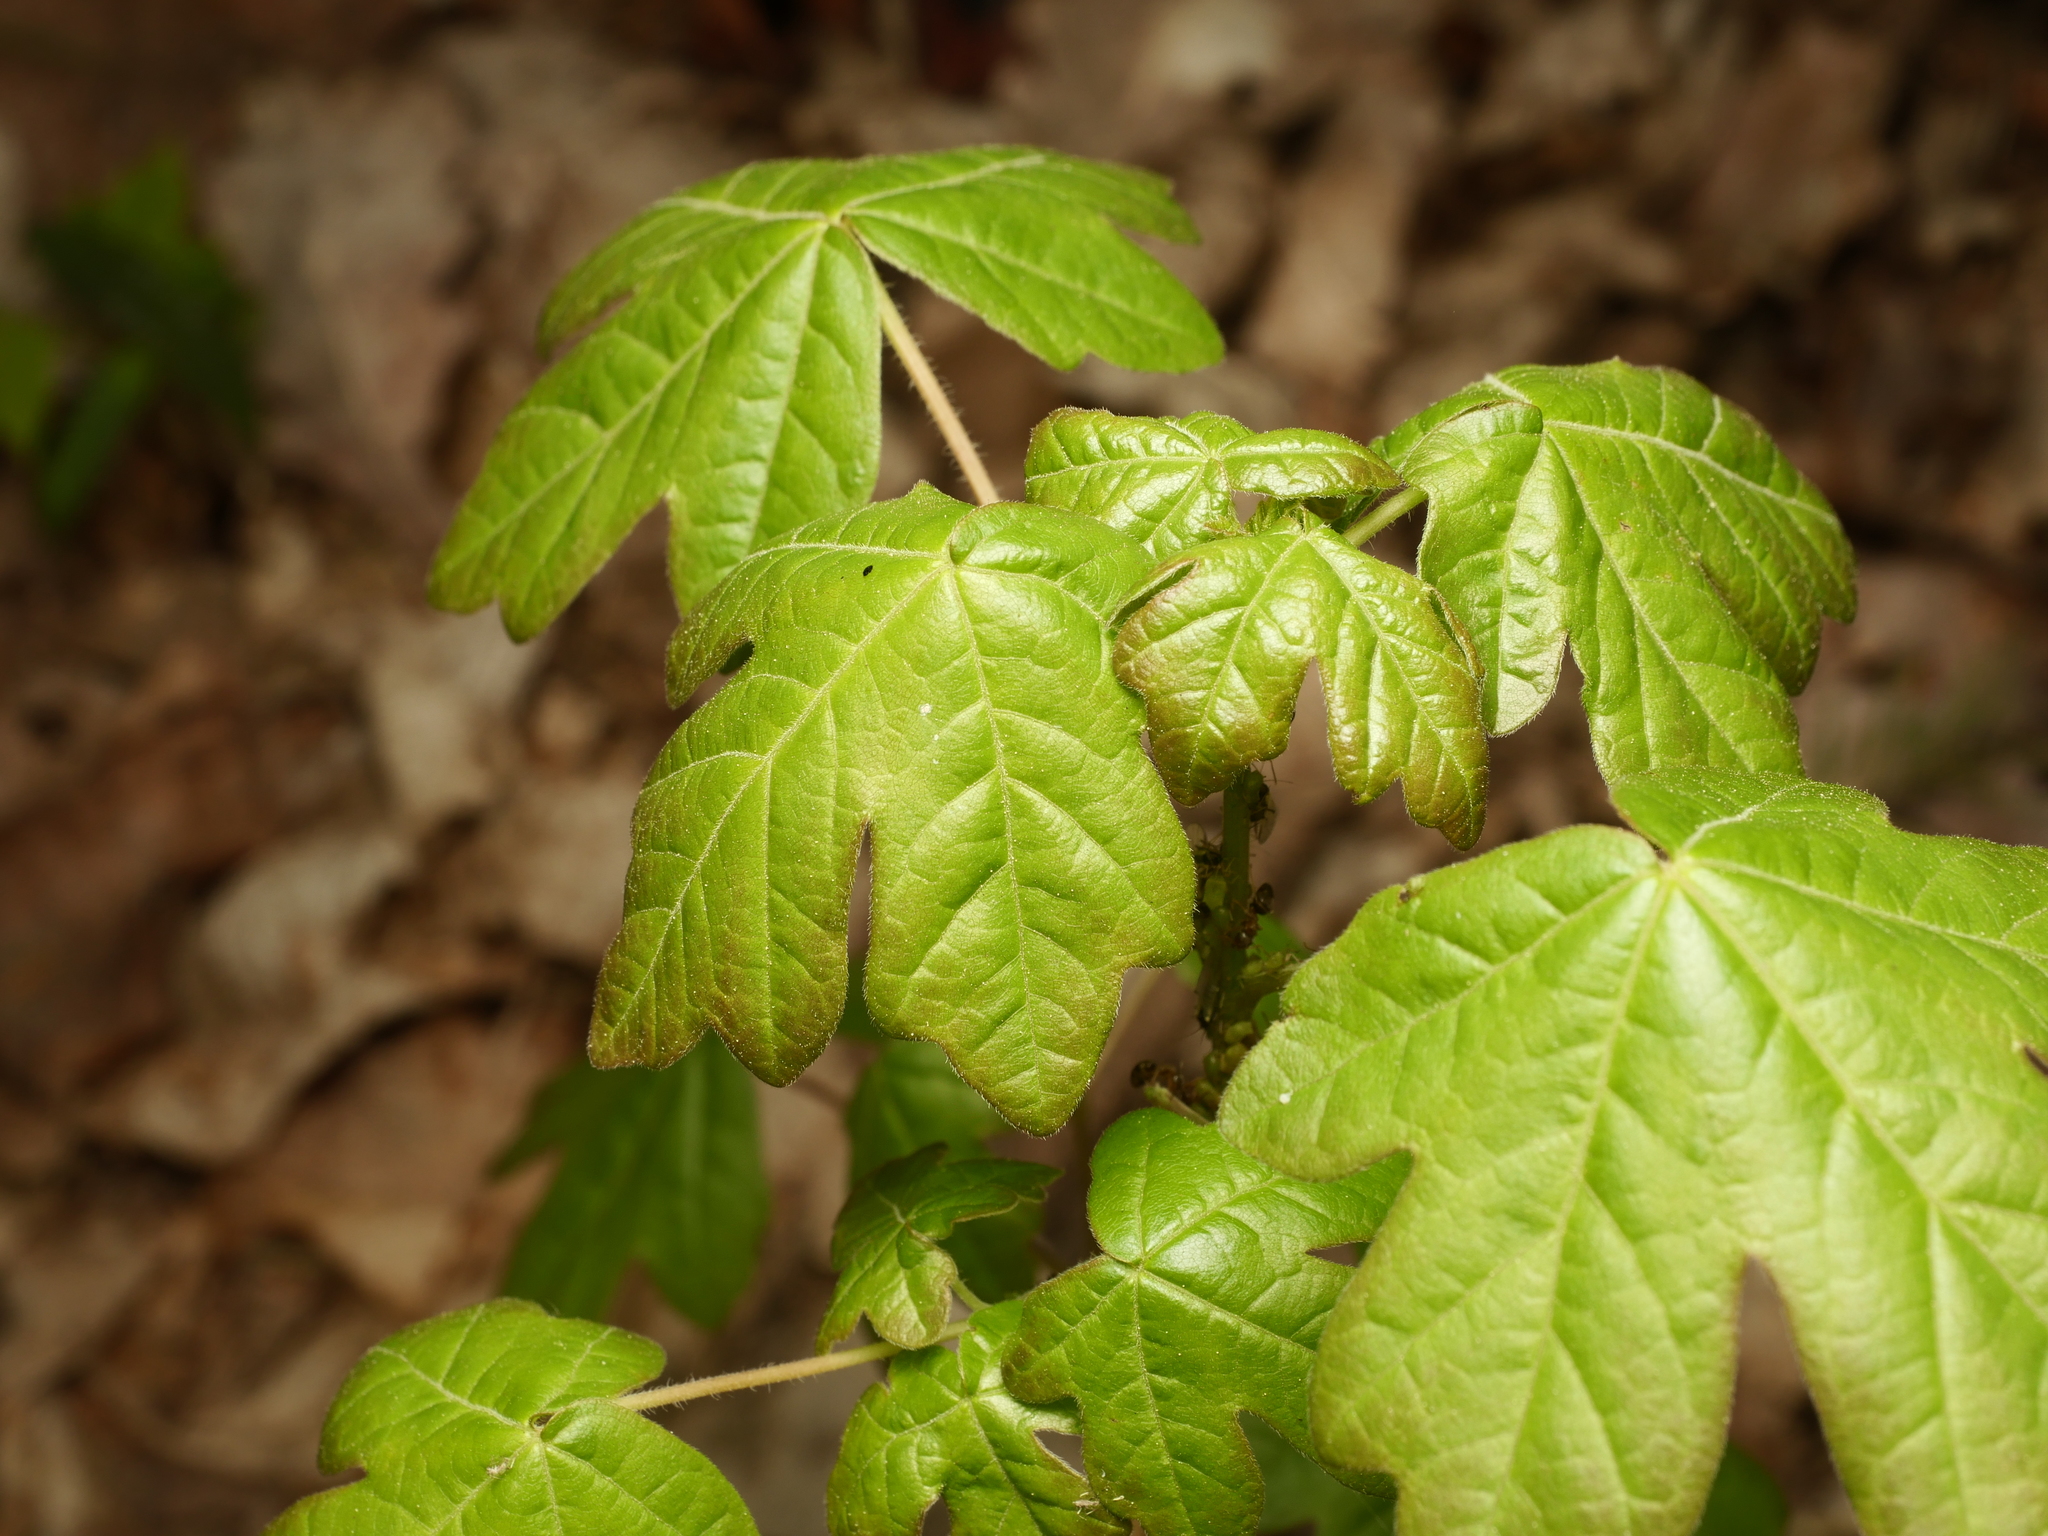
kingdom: Plantae
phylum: Tracheophyta
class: Magnoliopsida
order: Sapindales
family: Sapindaceae
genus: Acer
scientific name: Acer campestre
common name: Field maple
